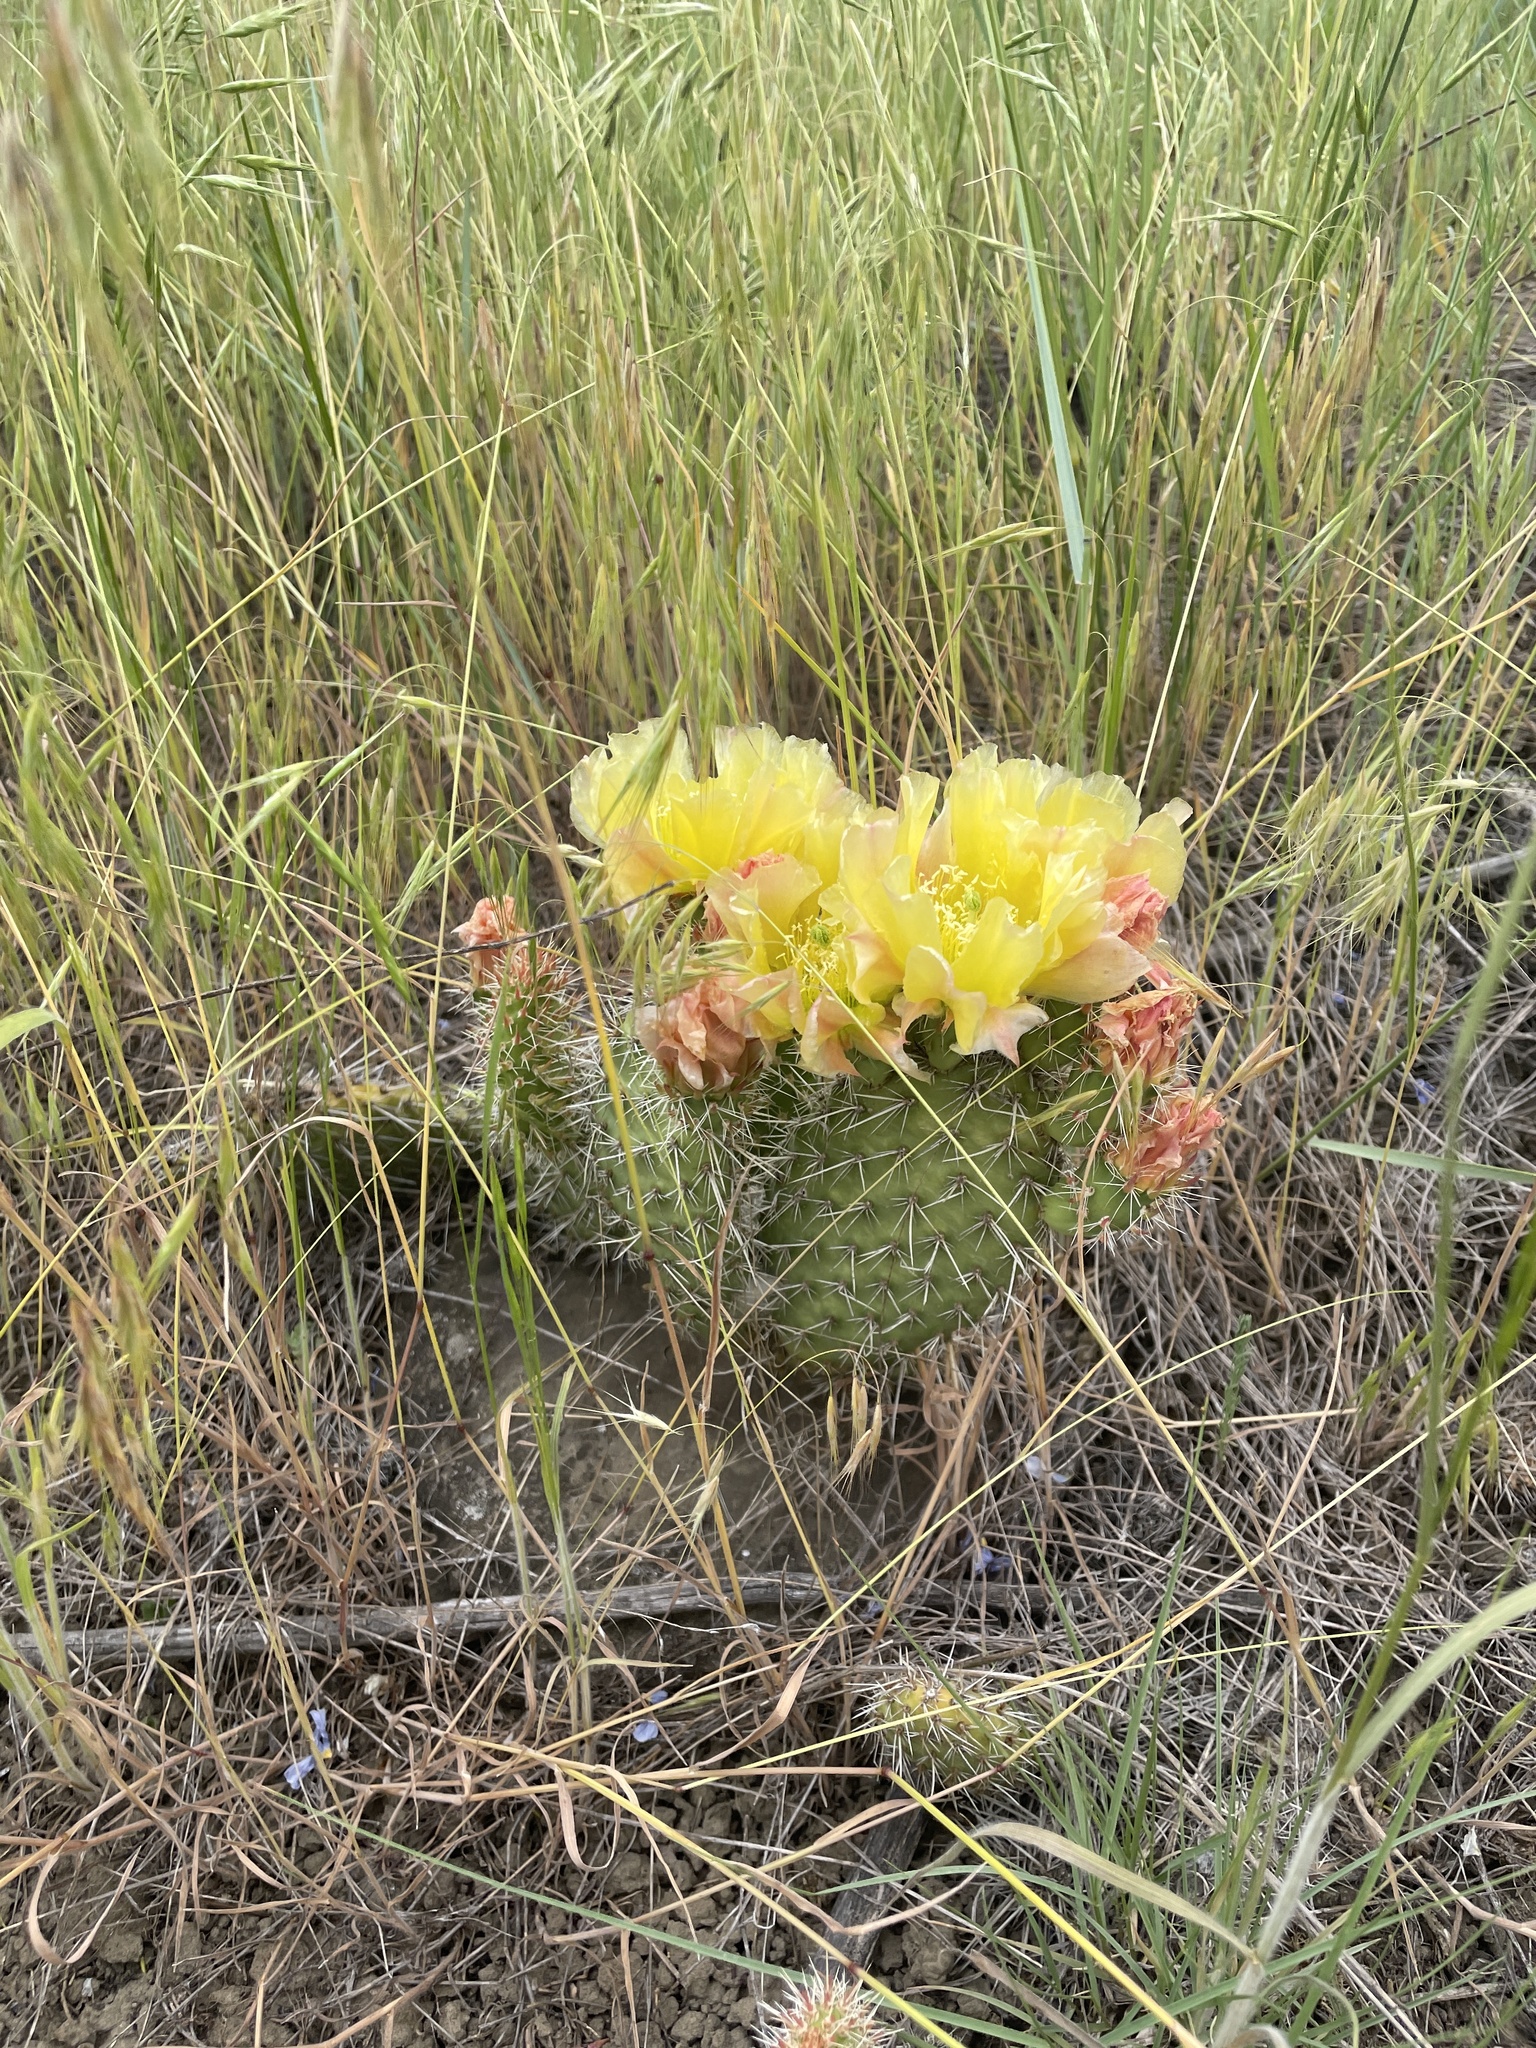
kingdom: Plantae
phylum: Tracheophyta
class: Magnoliopsida
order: Caryophyllales
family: Cactaceae
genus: Opuntia
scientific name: Opuntia polyacantha
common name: Plains prickly-pear
